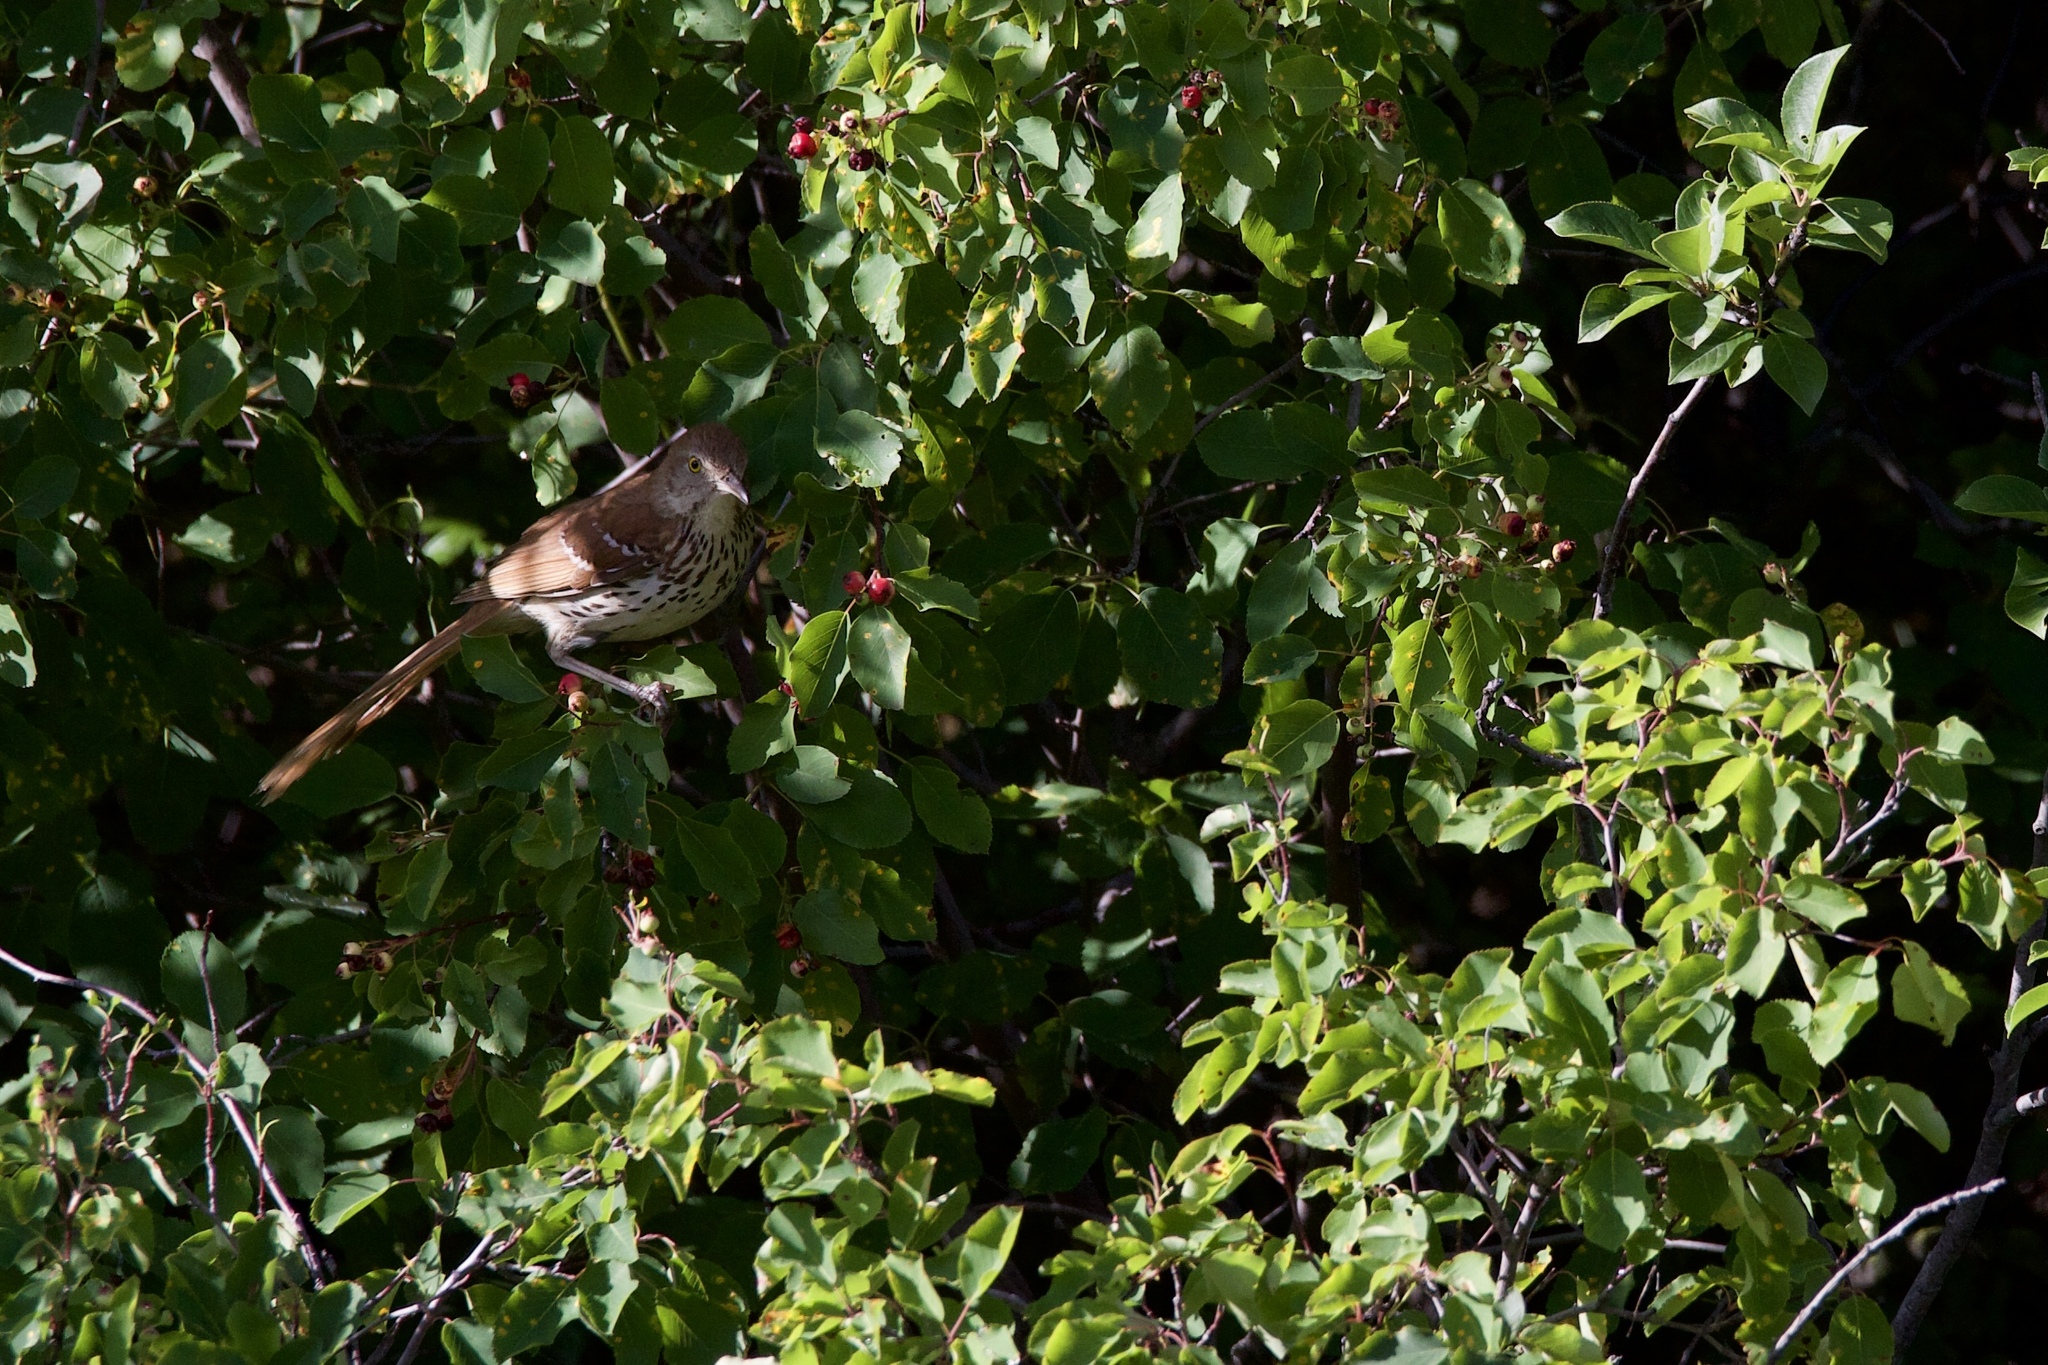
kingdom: Animalia
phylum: Chordata
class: Aves
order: Passeriformes
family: Mimidae
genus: Toxostoma
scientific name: Toxostoma rufum
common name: Brown thrasher
